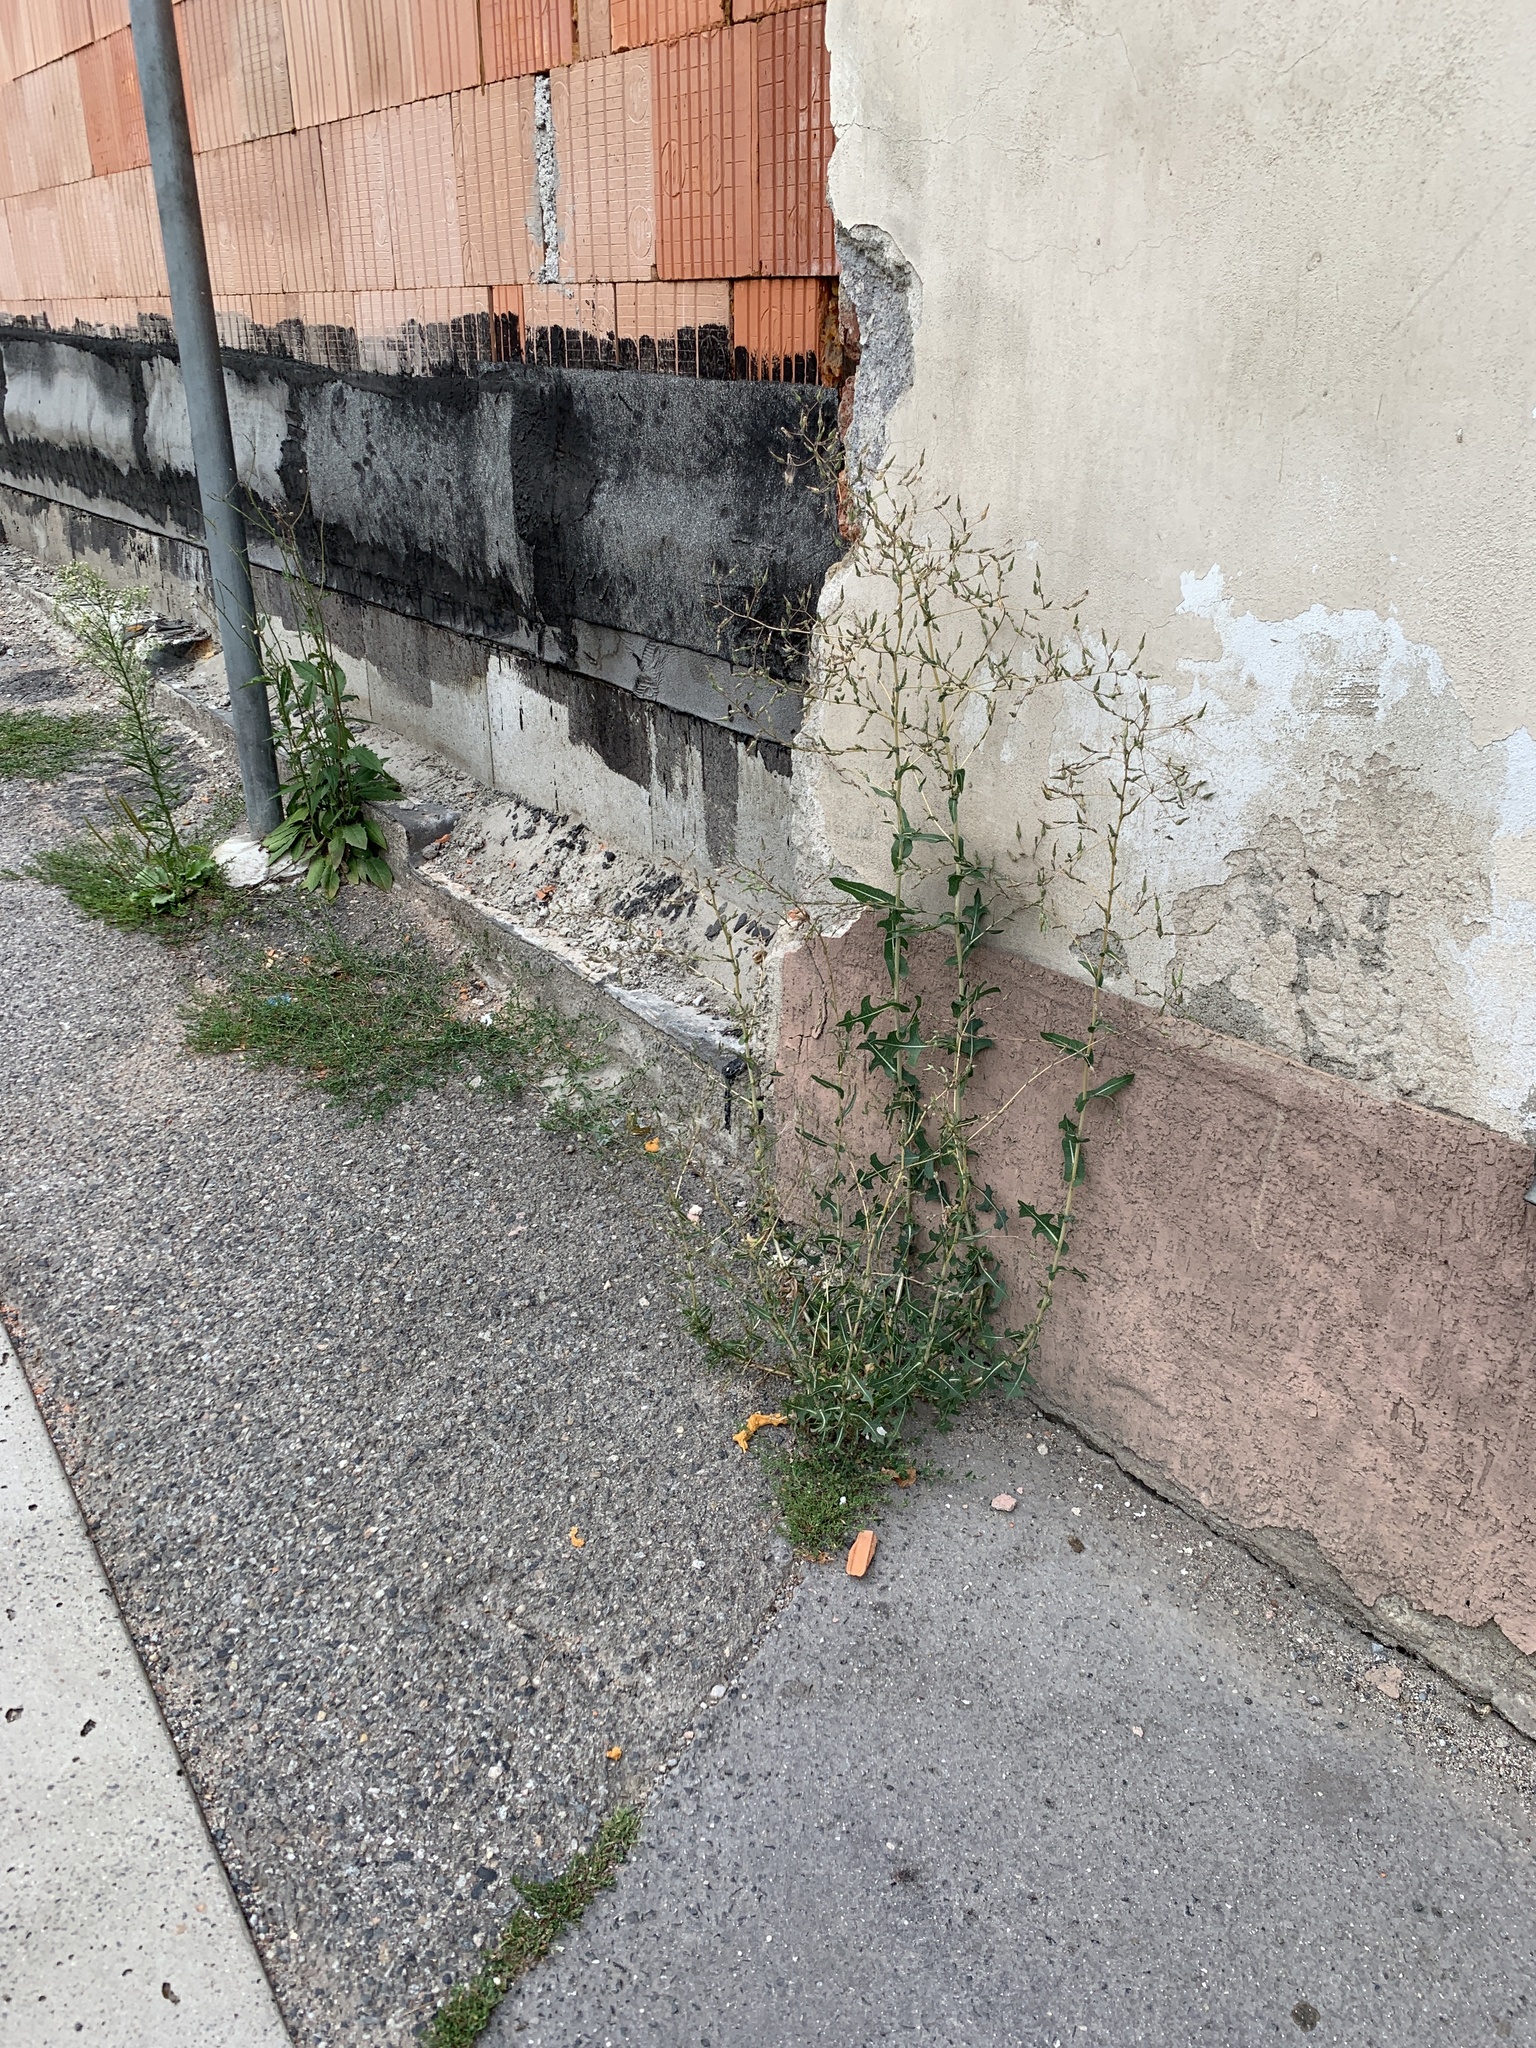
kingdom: Plantae
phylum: Tracheophyta
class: Magnoliopsida
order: Asterales
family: Asteraceae
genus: Lactuca
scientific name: Lactuca serriola
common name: Prickly lettuce
